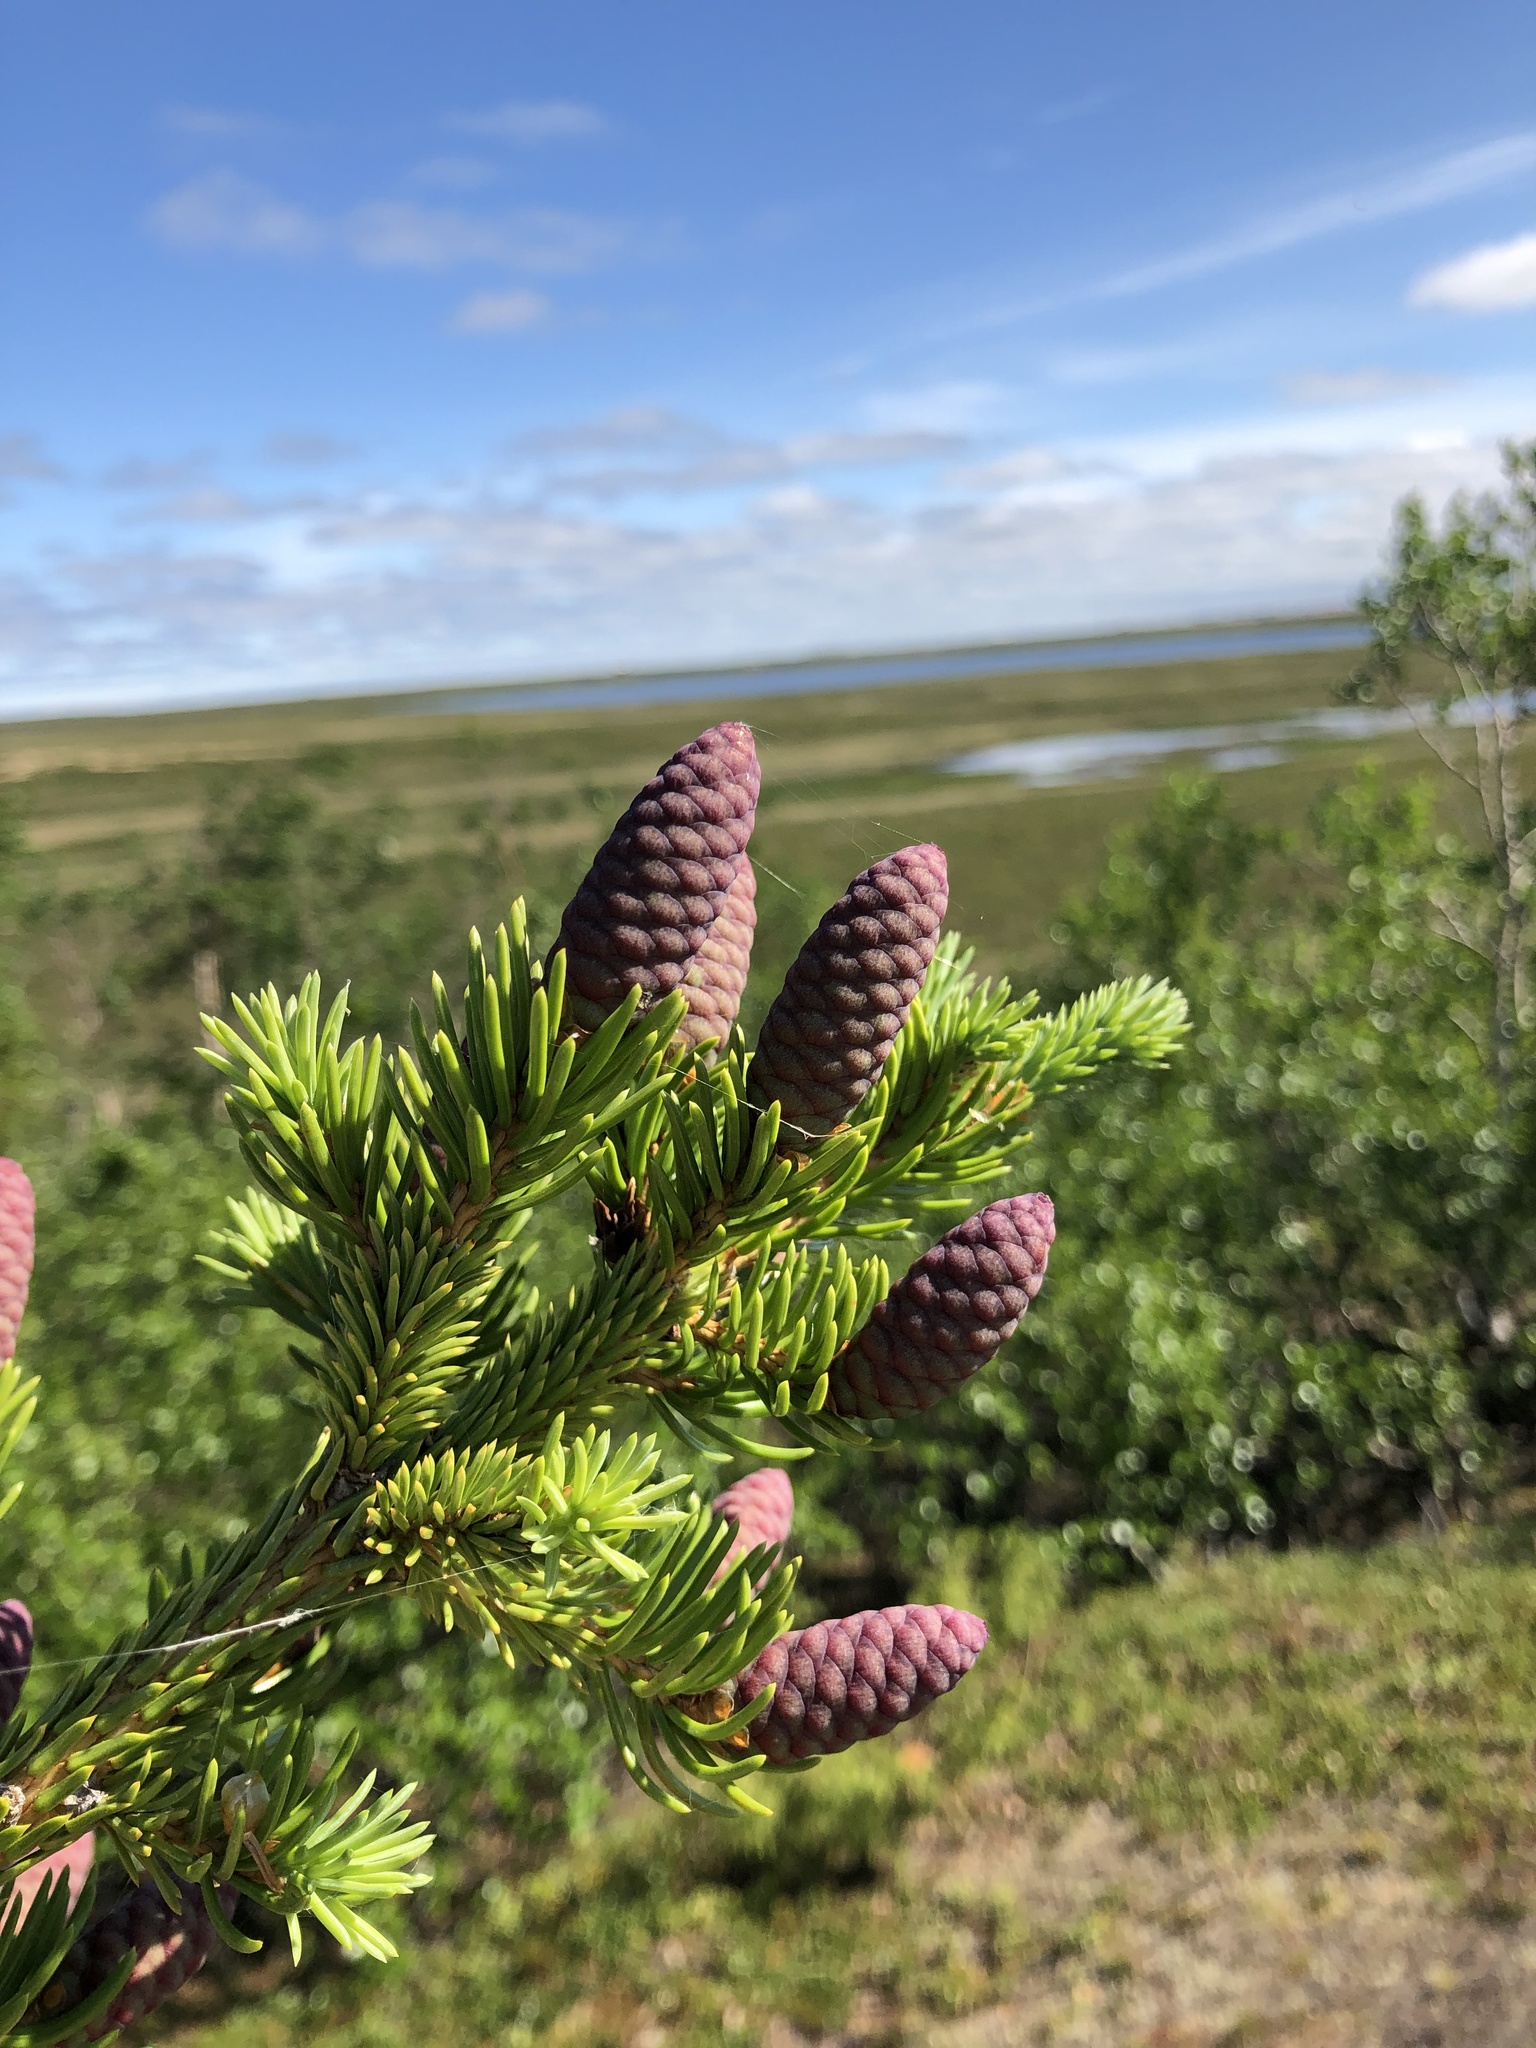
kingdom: Plantae
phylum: Tracheophyta
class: Pinopsida
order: Pinales
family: Pinaceae
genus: Picea
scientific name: Picea obovata
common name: Siberian spruce
